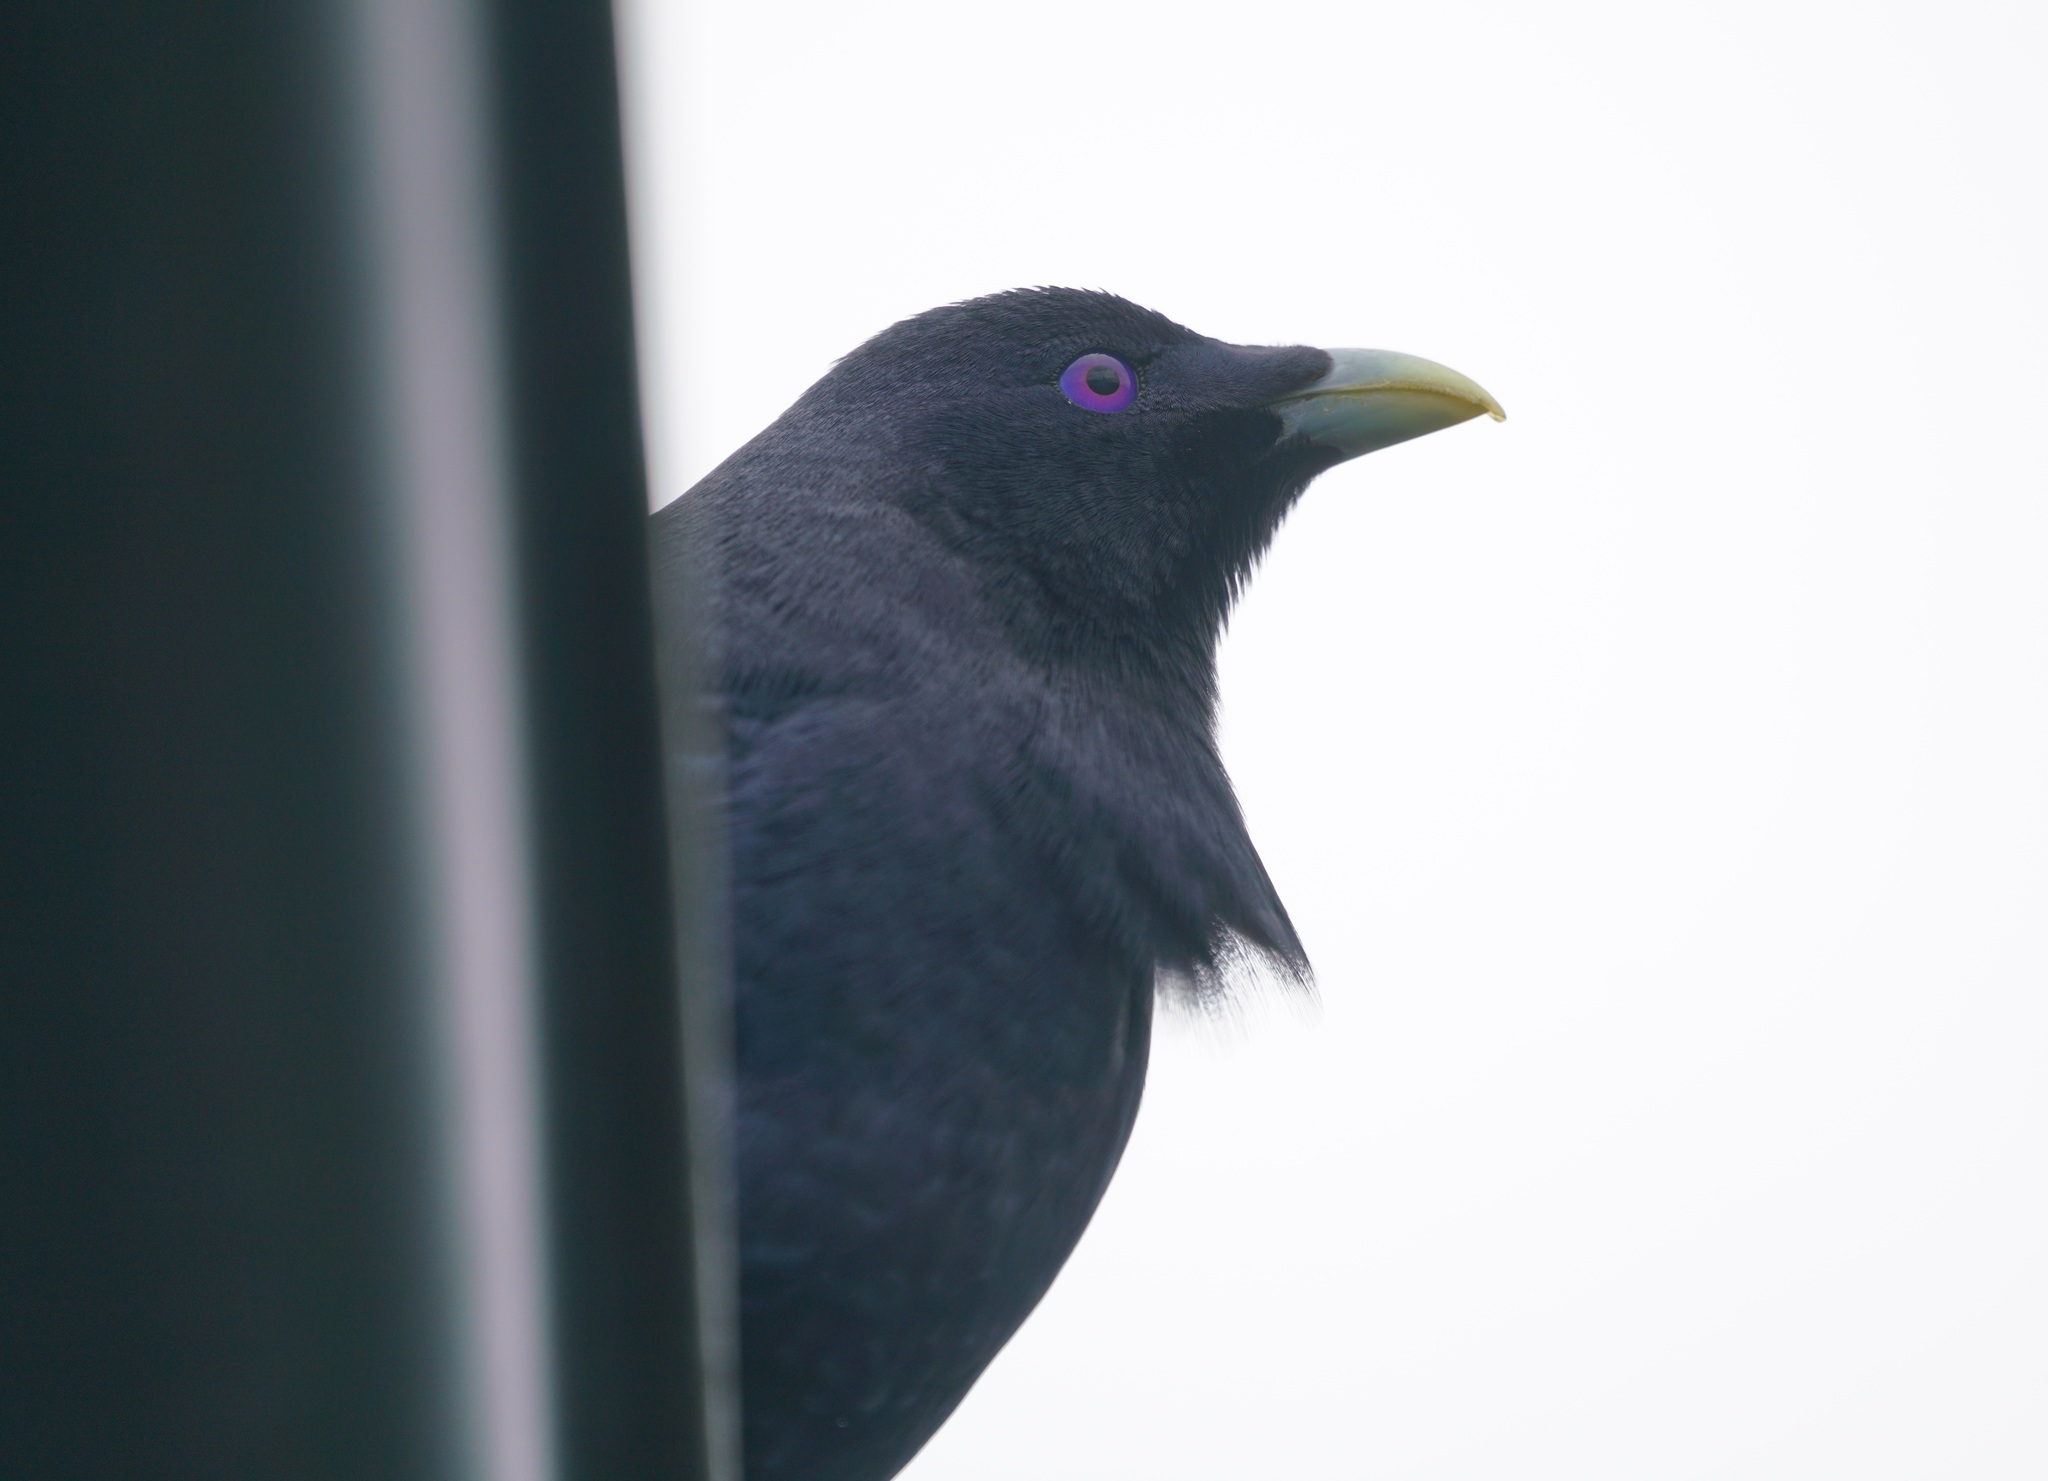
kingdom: Animalia
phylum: Chordata
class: Aves
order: Passeriformes
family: Ptilonorhynchidae
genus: Ptilonorhynchus
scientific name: Ptilonorhynchus violaceus
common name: Satin bowerbird
